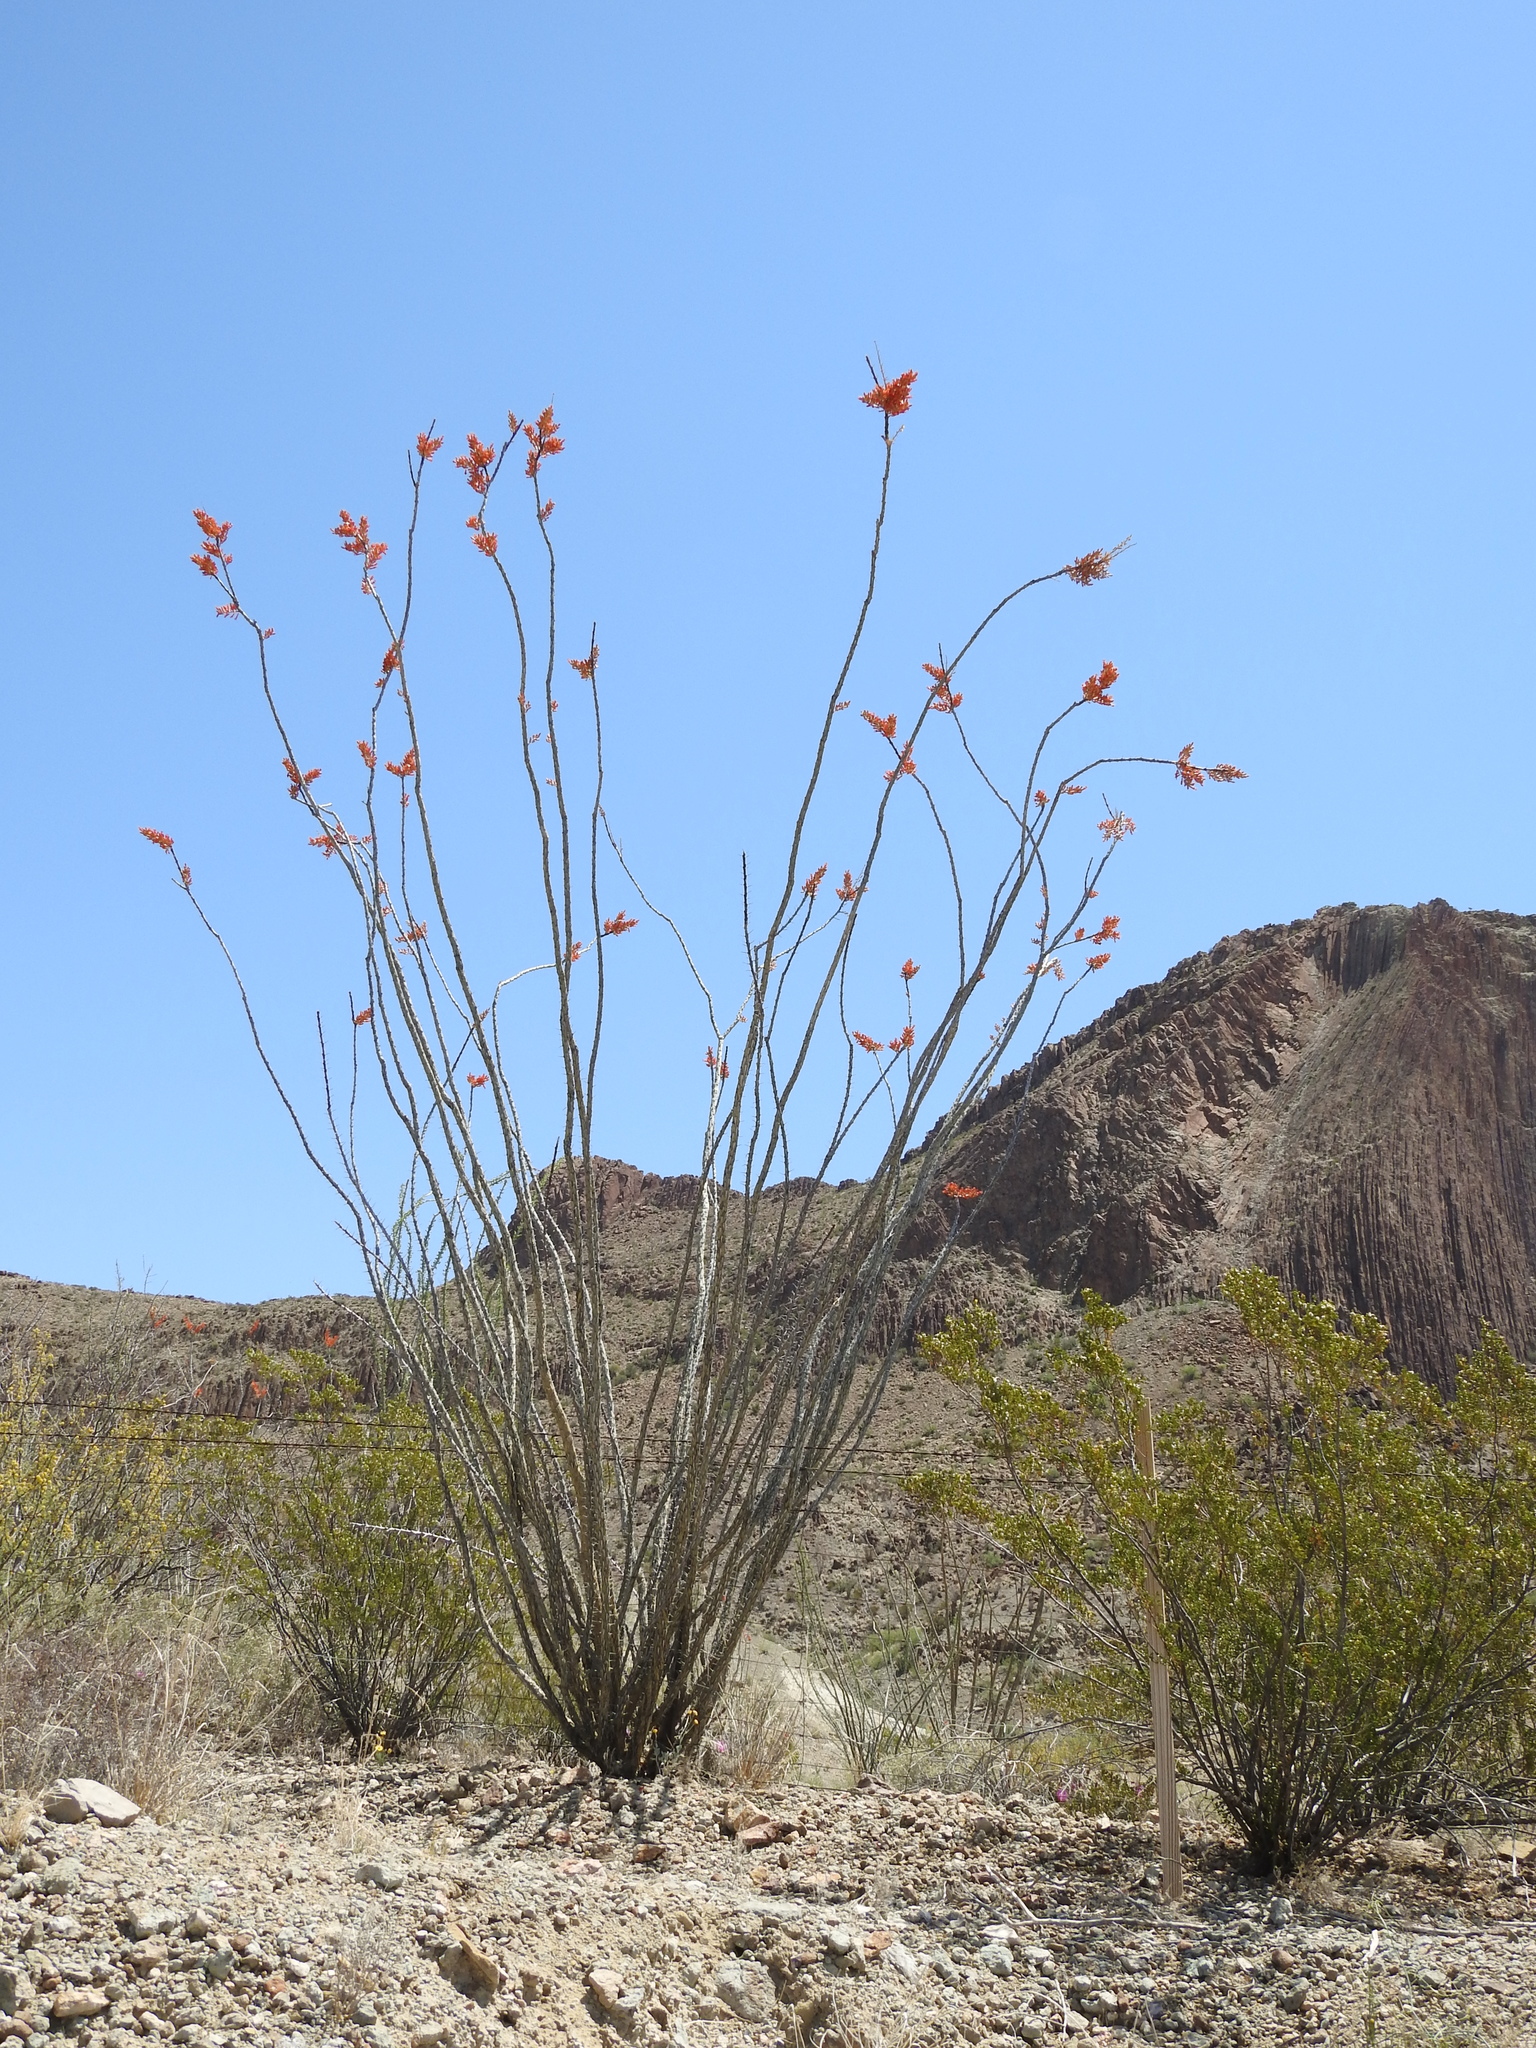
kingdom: Plantae
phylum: Tracheophyta
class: Magnoliopsida
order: Ericales
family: Fouquieriaceae
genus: Fouquieria
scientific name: Fouquieria splendens
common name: Vine-cactus
